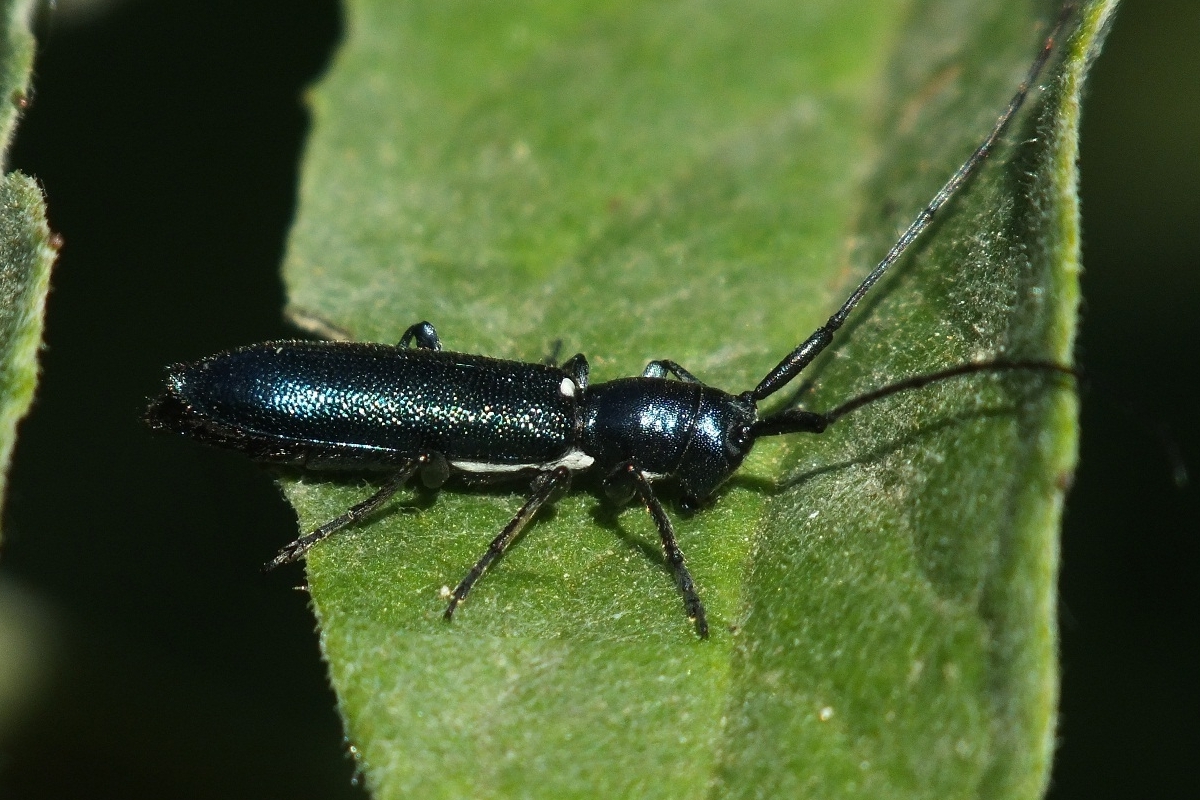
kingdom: Animalia
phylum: Arthropoda
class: Insecta
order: Coleoptera
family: Cerambycidae
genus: Agapanthiola
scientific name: Agapanthiola leucaspis
